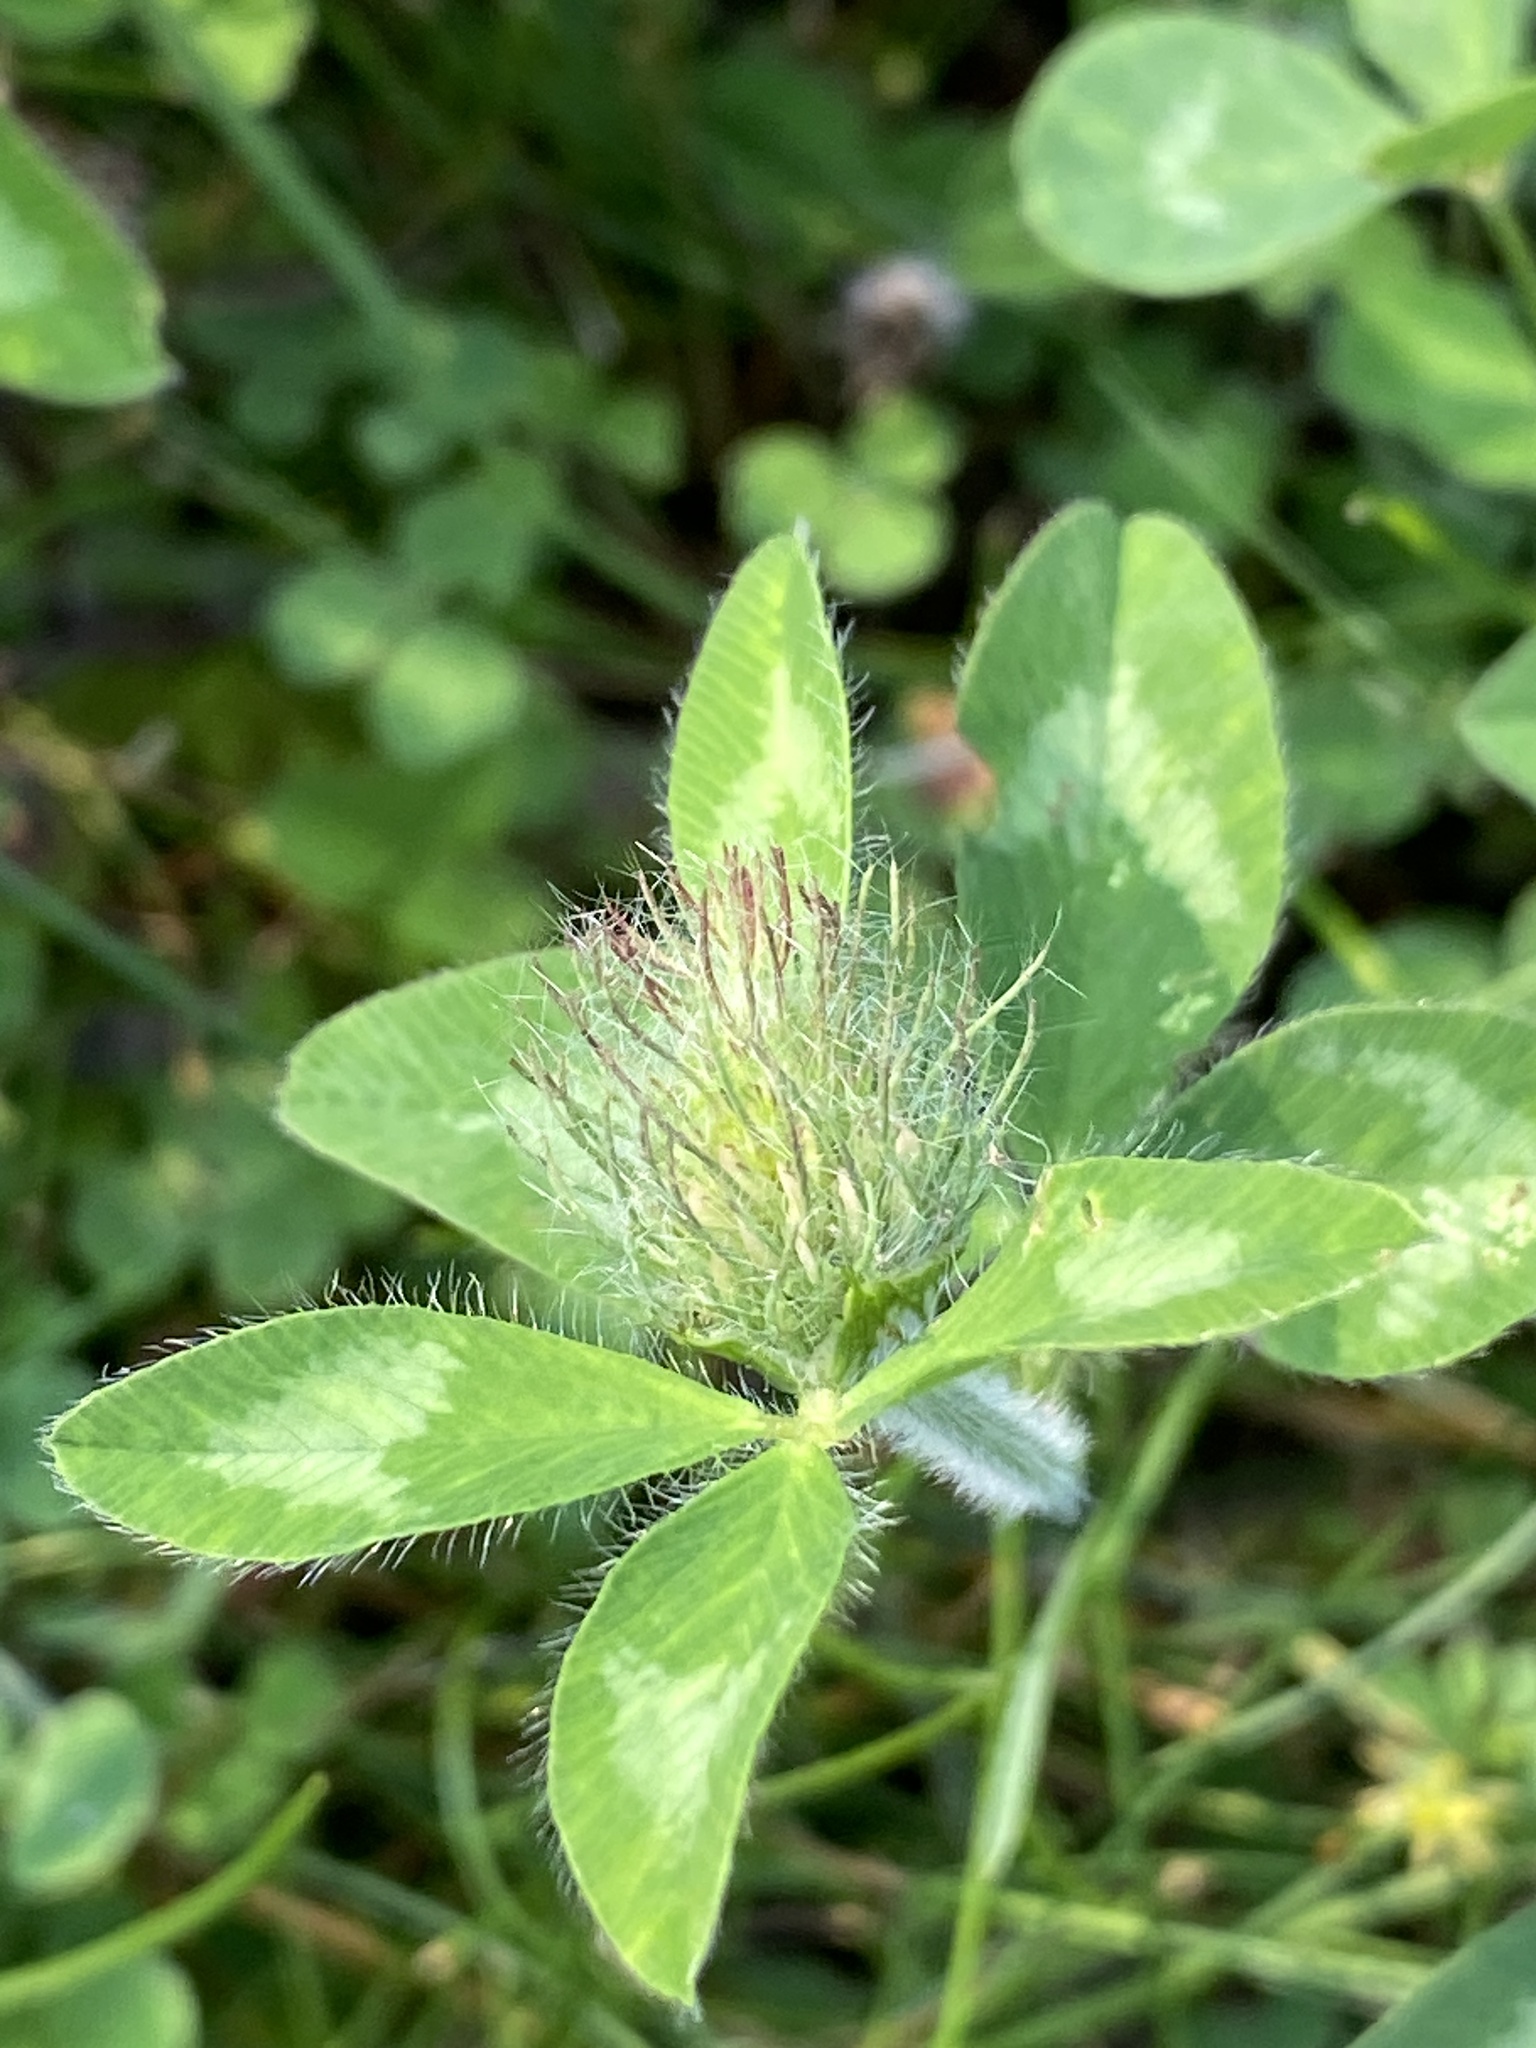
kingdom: Plantae
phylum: Tracheophyta
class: Magnoliopsida
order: Fabales
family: Fabaceae
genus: Trifolium
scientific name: Trifolium pratense
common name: Red clover
